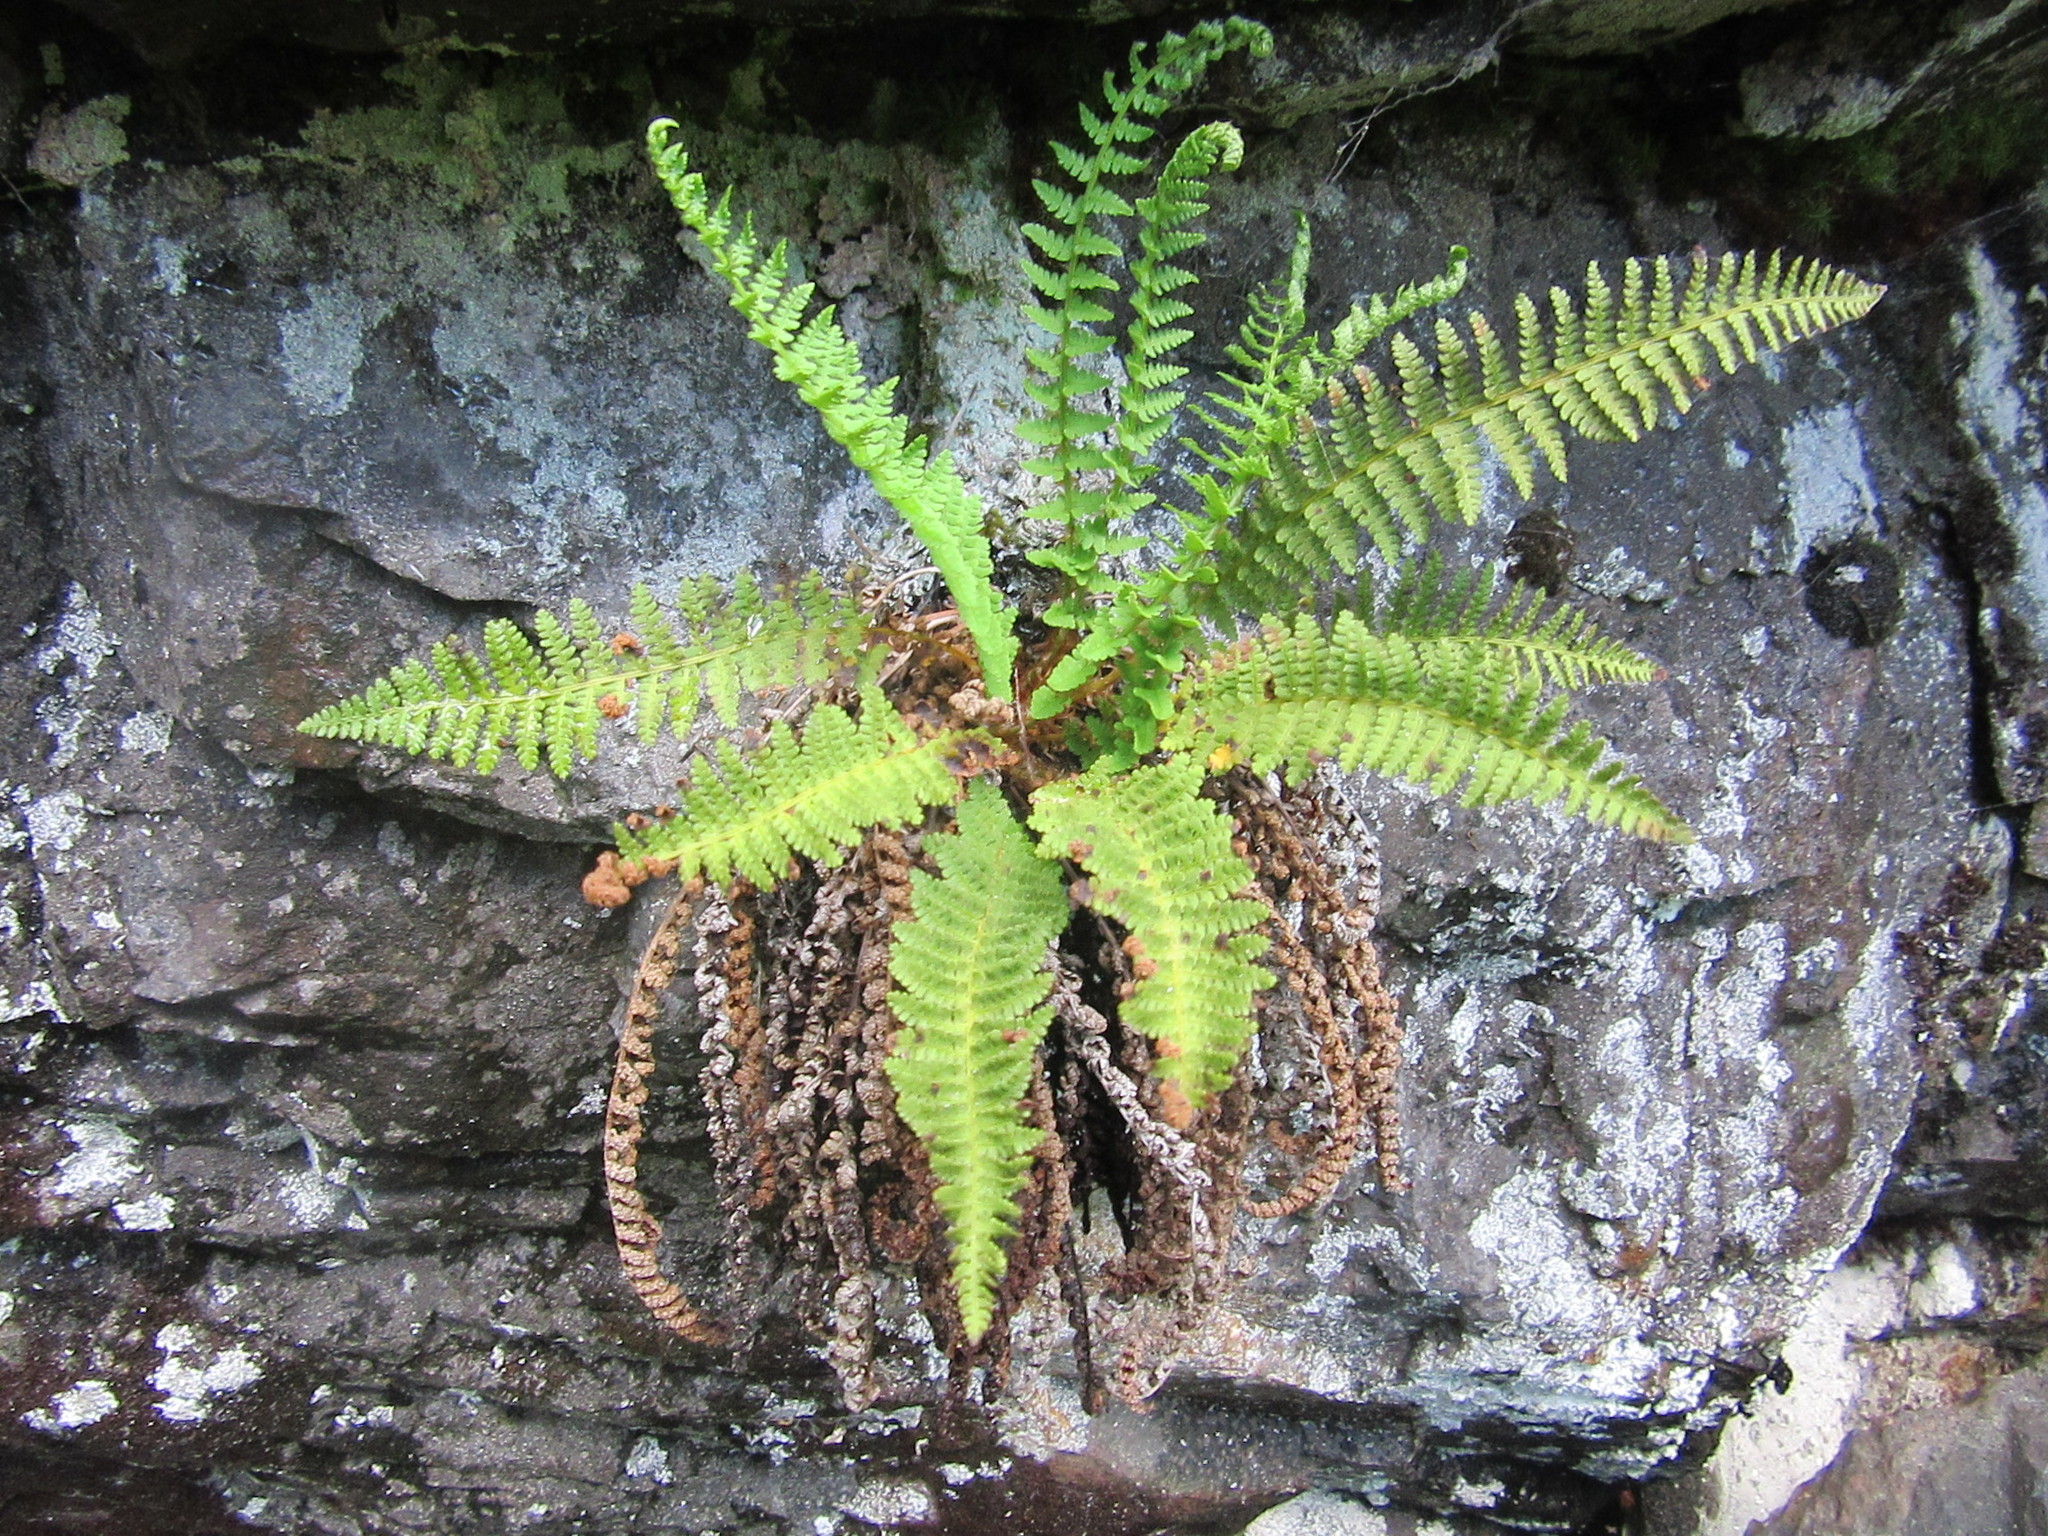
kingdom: Plantae
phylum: Tracheophyta
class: Polypodiopsida
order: Polypodiales
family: Dryopteridaceae
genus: Dryopteris
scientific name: Dryopteris fragrans
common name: Fragrant wood fern
